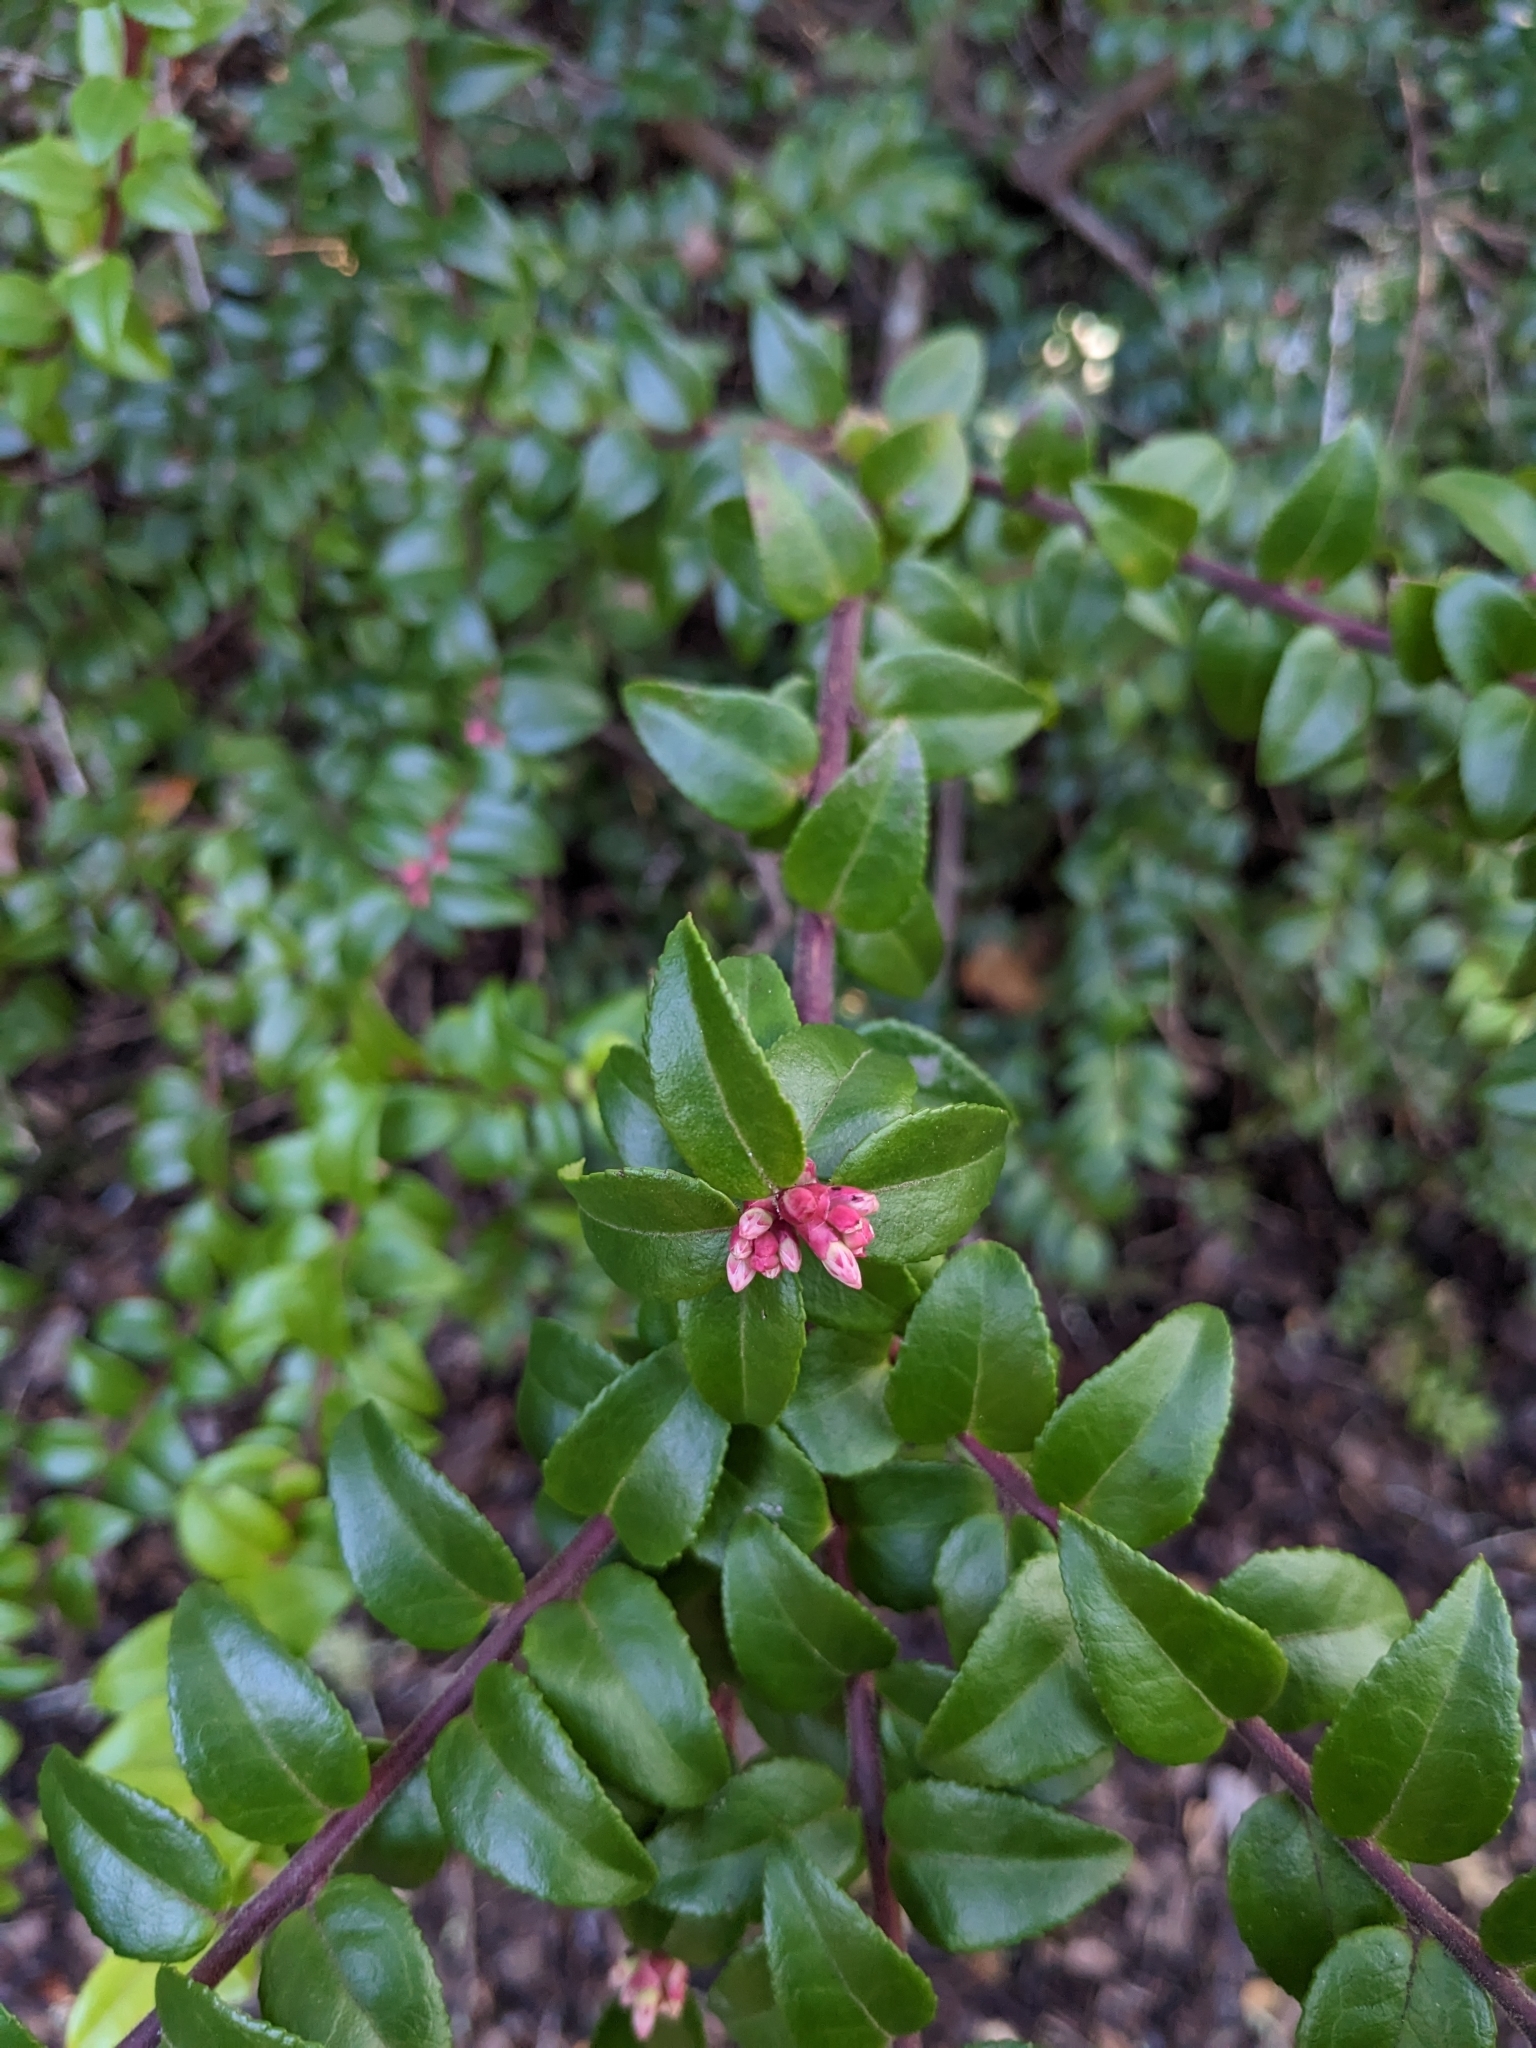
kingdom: Plantae
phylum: Tracheophyta
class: Magnoliopsida
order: Ericales
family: Ericaceae
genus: Vaccinium
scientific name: Vaccinium ovatum
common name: California-huckleberry
